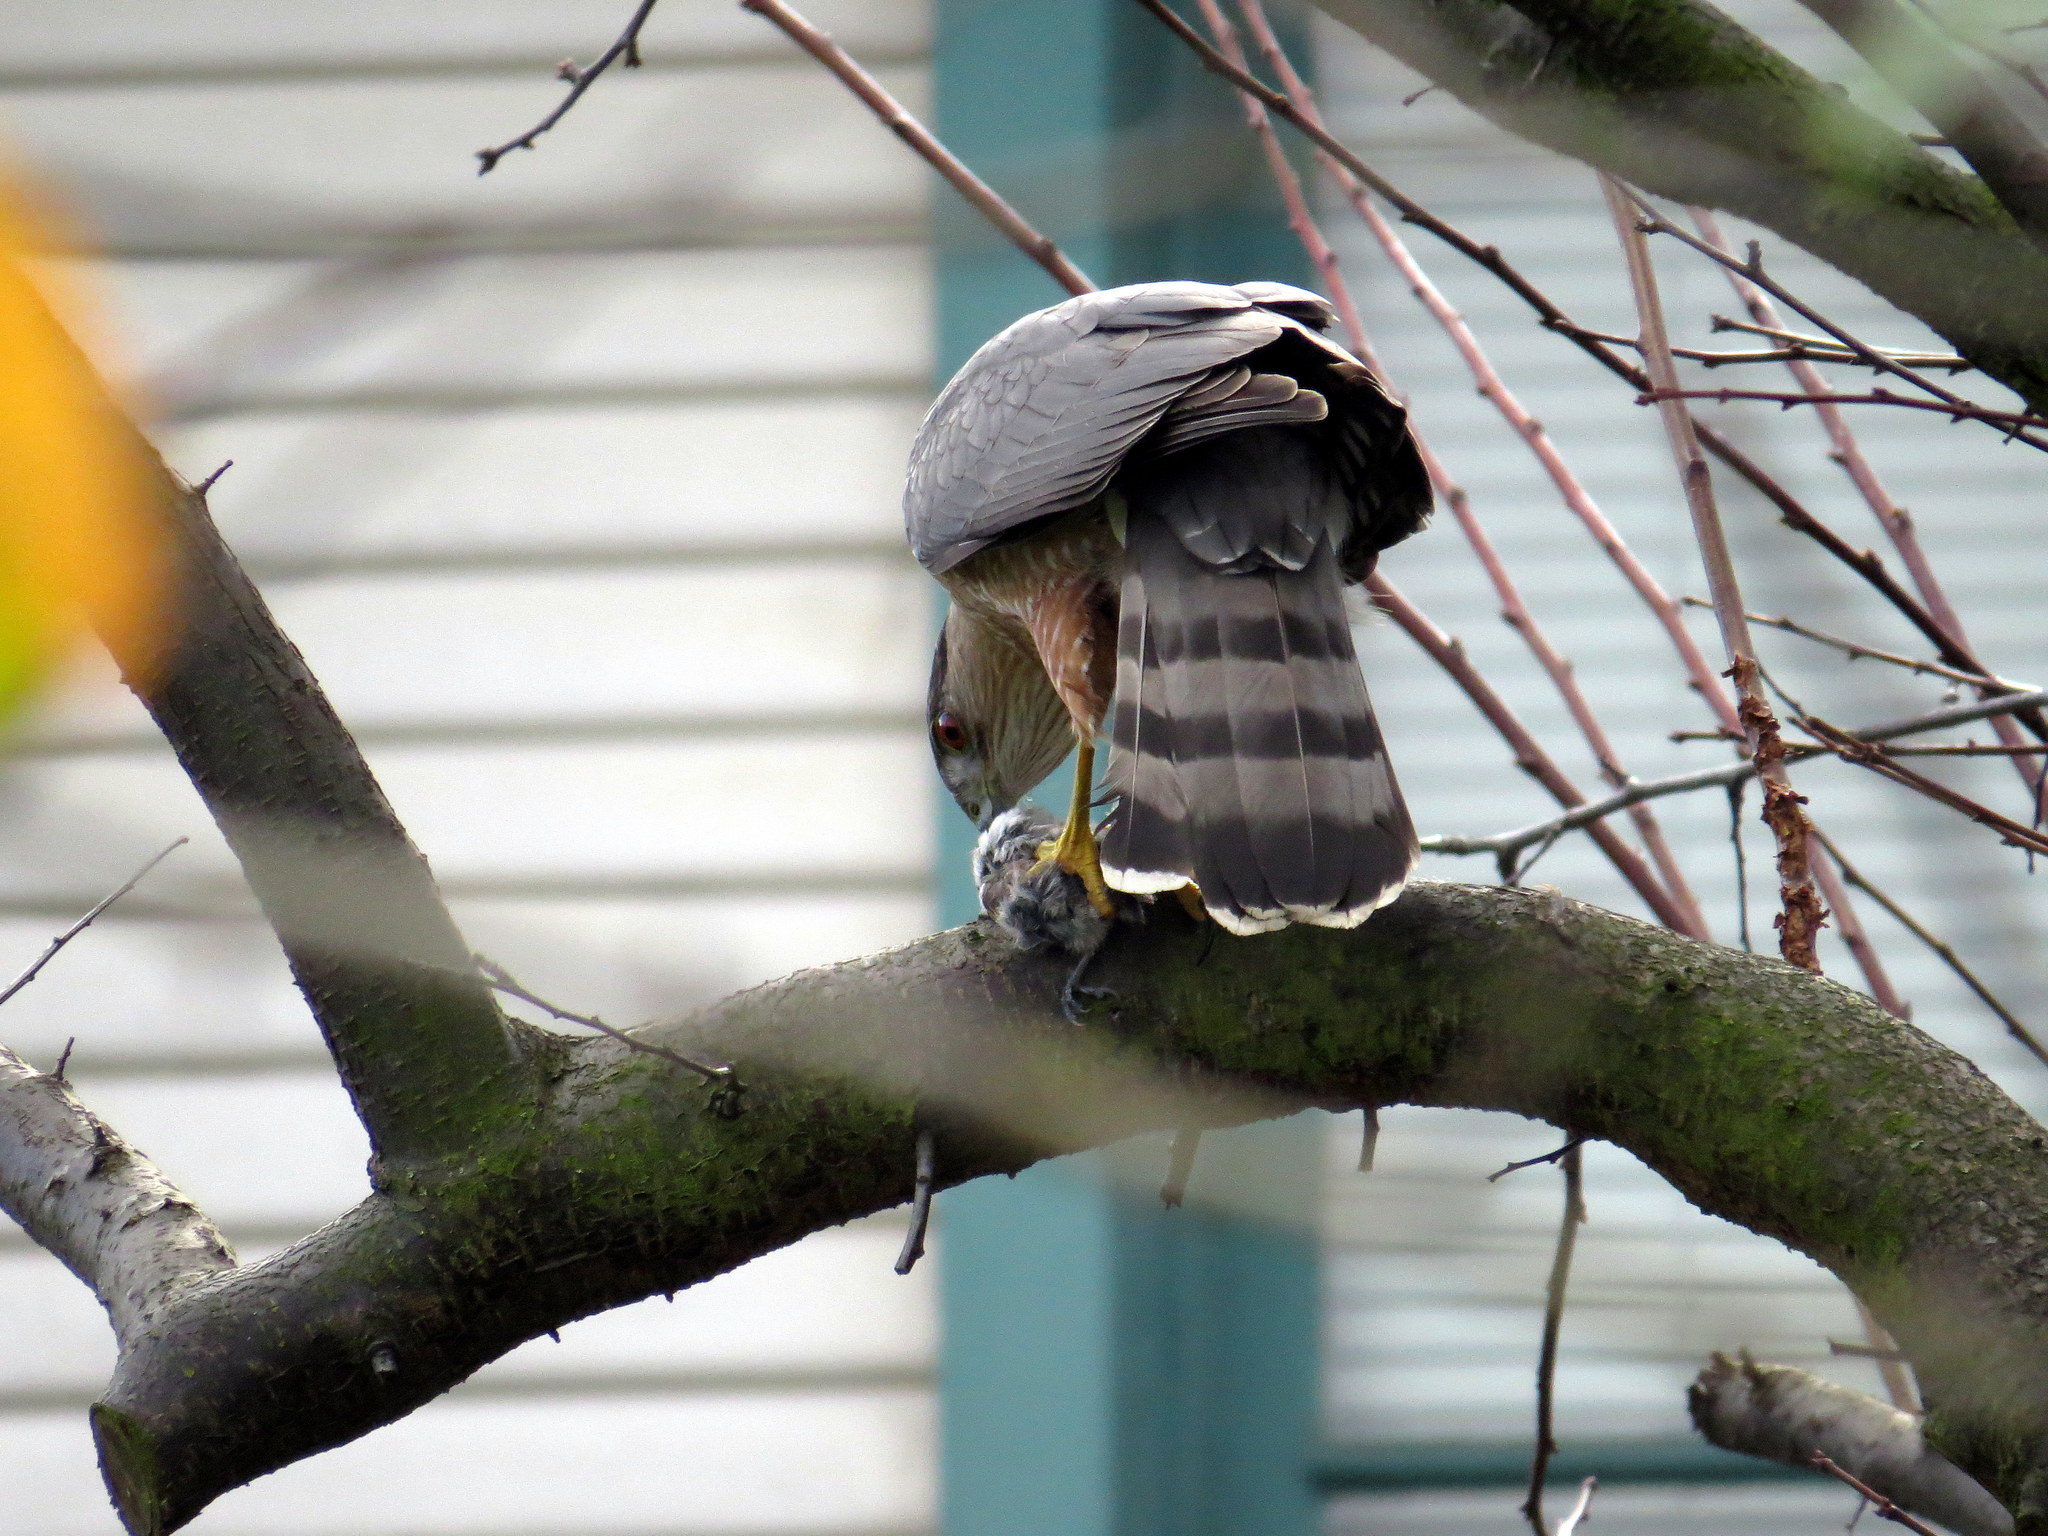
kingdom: Animalia
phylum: Chordata
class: Aves
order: Accipitriformes
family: Accipitridae
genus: Accipiter
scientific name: Accipiter cooperii
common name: Cooper's hawk
